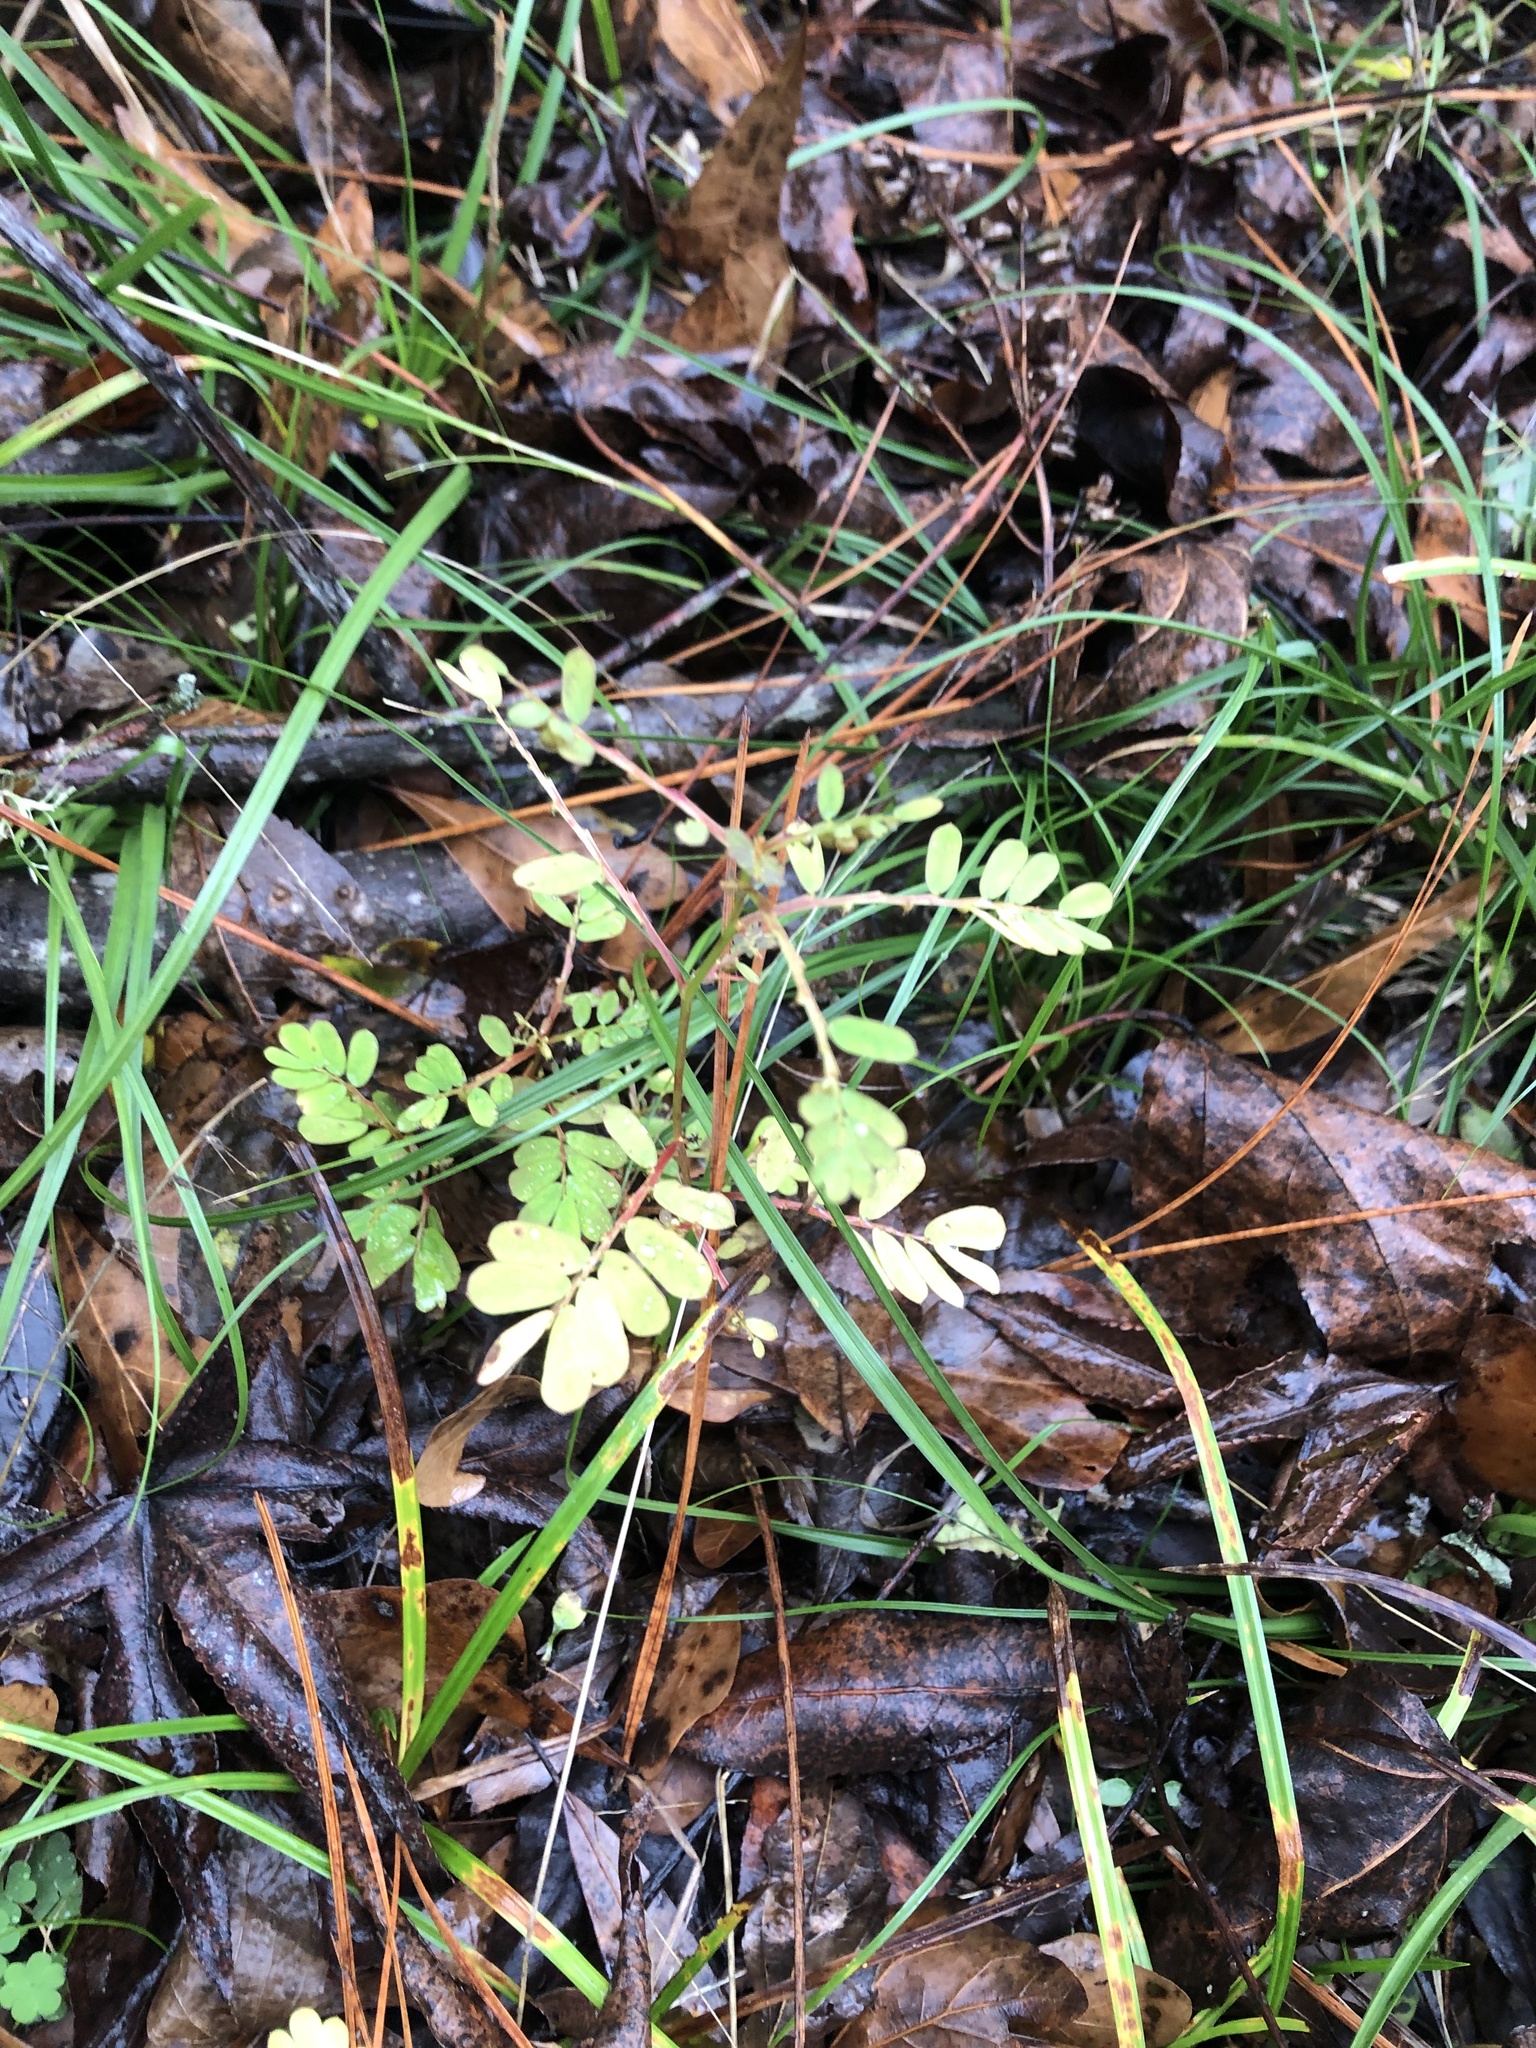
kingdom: Plantae
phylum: Tracheophyta
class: Magnoliopsida
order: Malpighiales
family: Phyllanthaceae
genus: Phyllanthus
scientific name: Phyllanthus urinaria
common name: Chamber bitter
